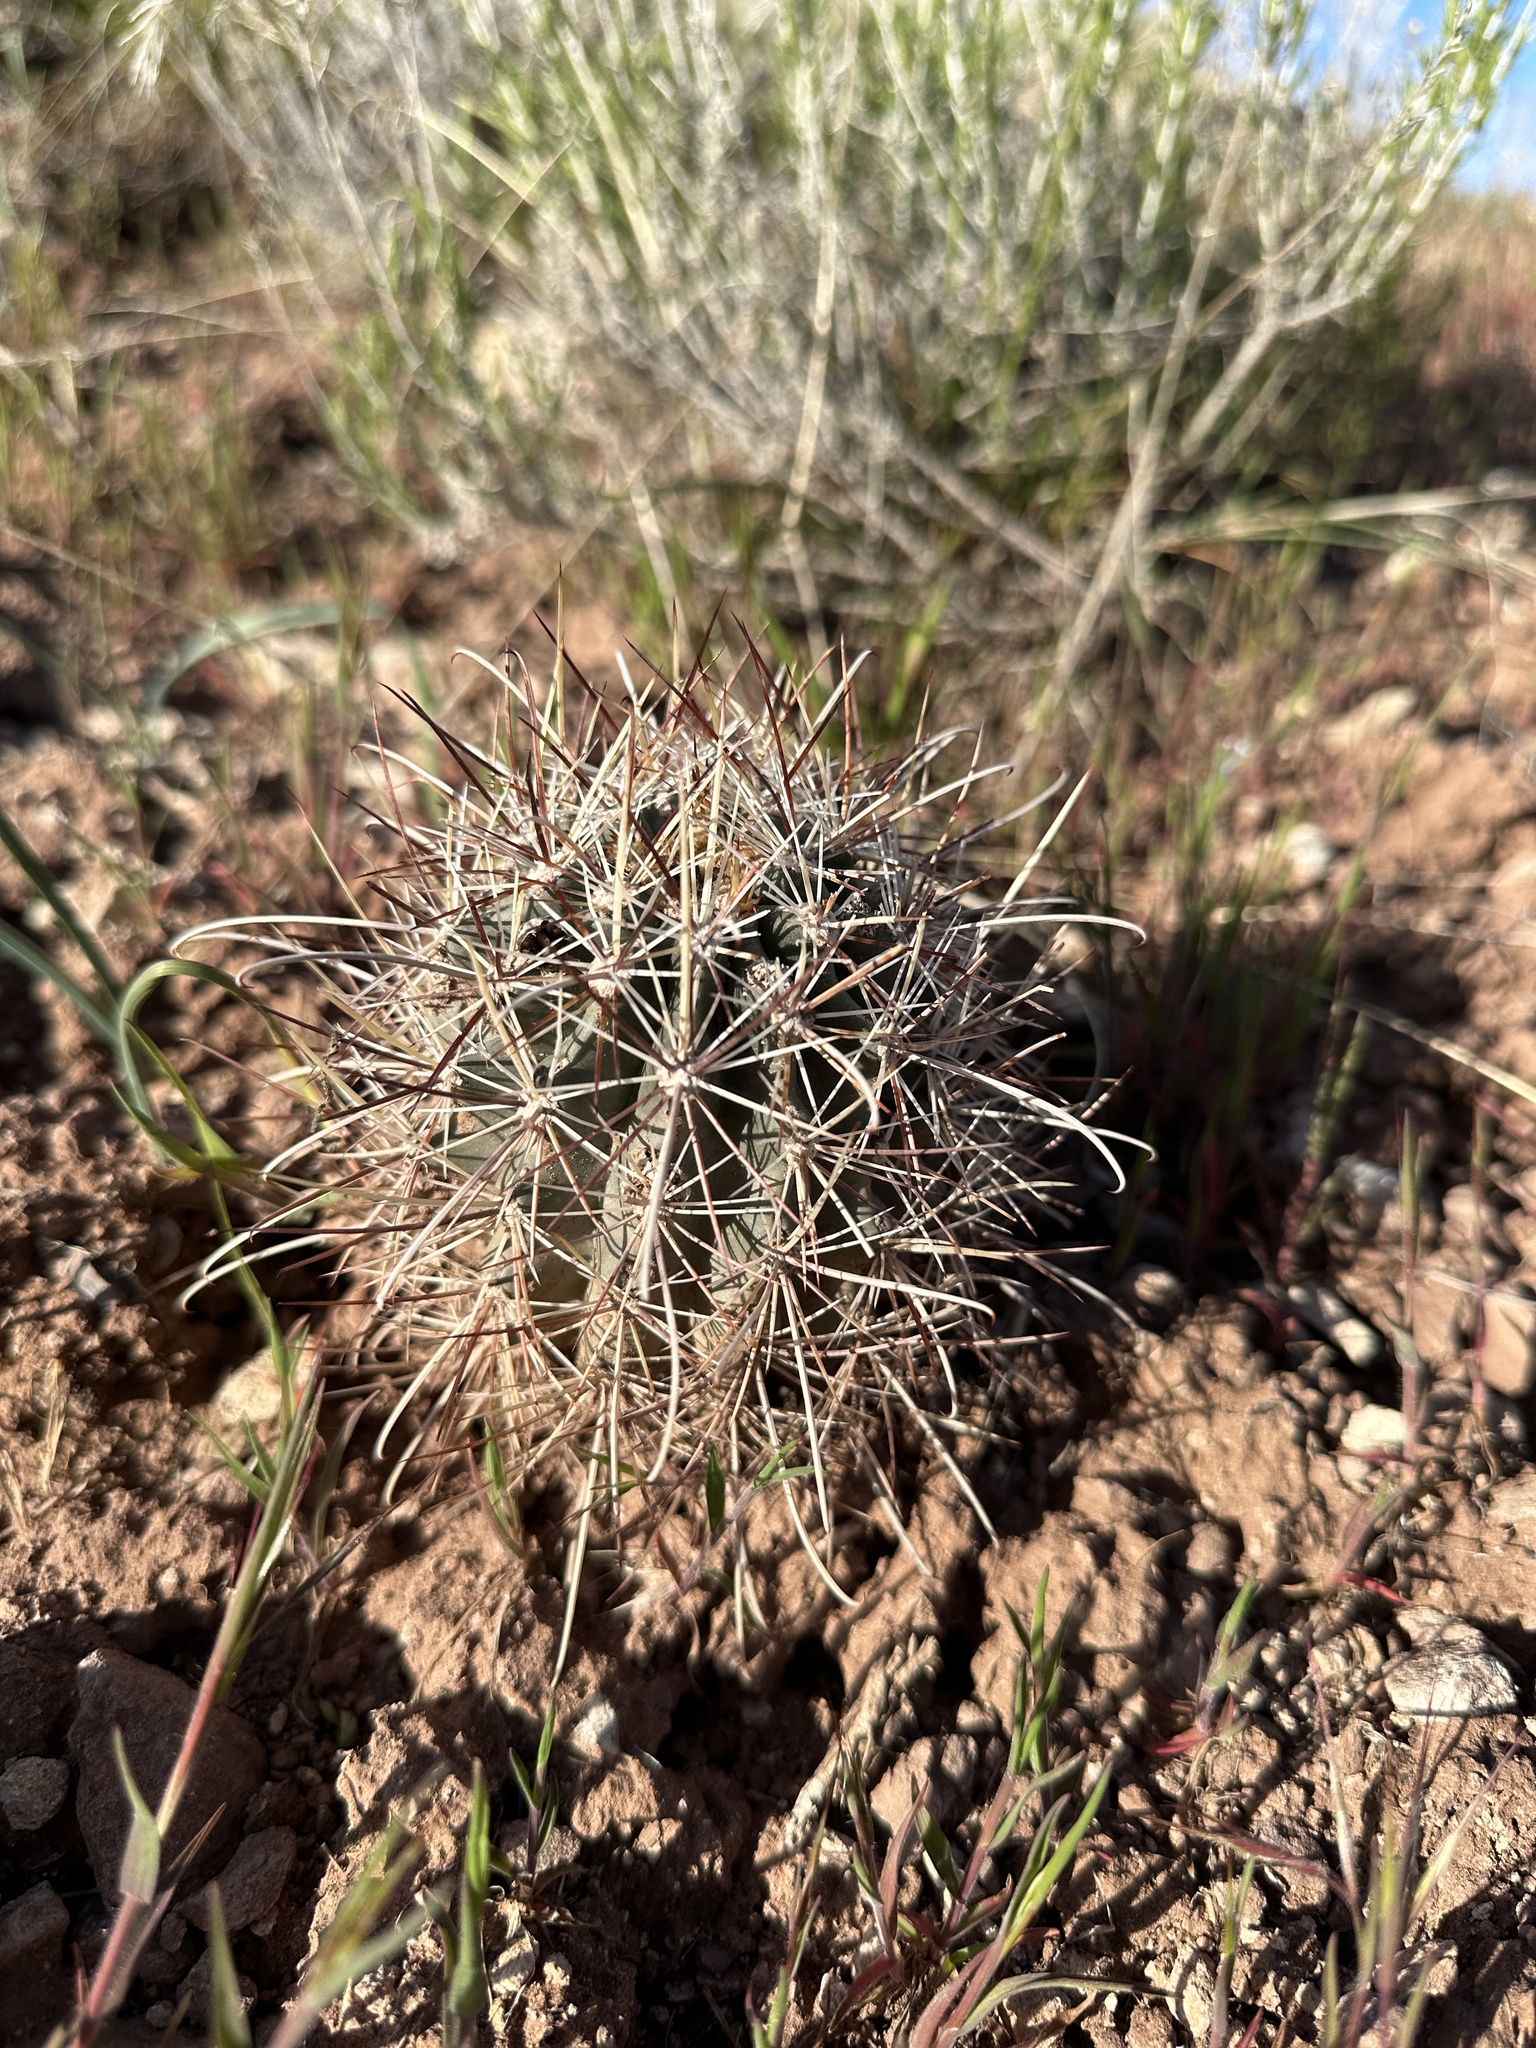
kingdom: Plantae
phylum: Tracheophyta
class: Magnoliopsida
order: Caryophyllales
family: Cactaceae
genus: Sclerocactus
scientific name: Sclerocactus parviflorus
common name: Small-flower fishhook cactus
